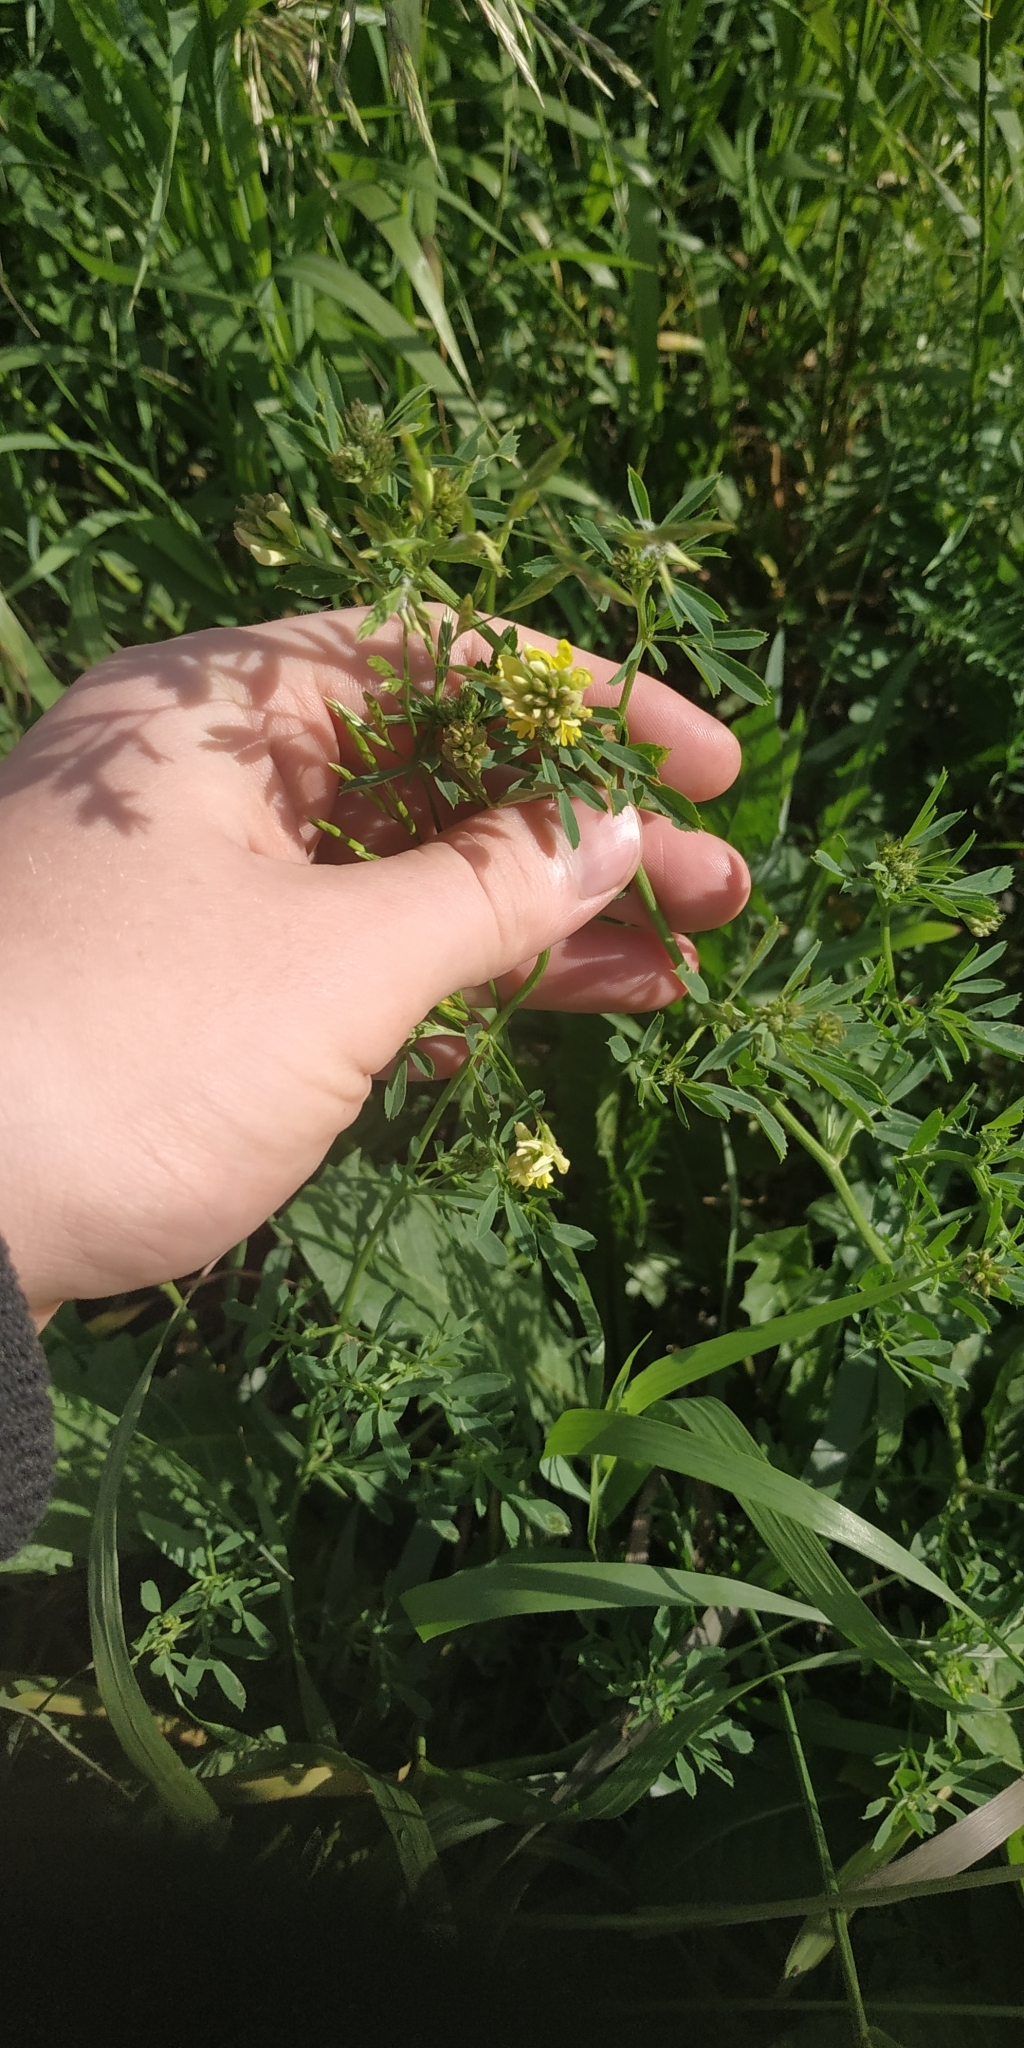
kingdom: Plantae
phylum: Tracheophyta
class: Magnoliopsida
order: Fabales
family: Fabaceae
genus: Medicago
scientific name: Medicago varia
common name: Sand lucerne
